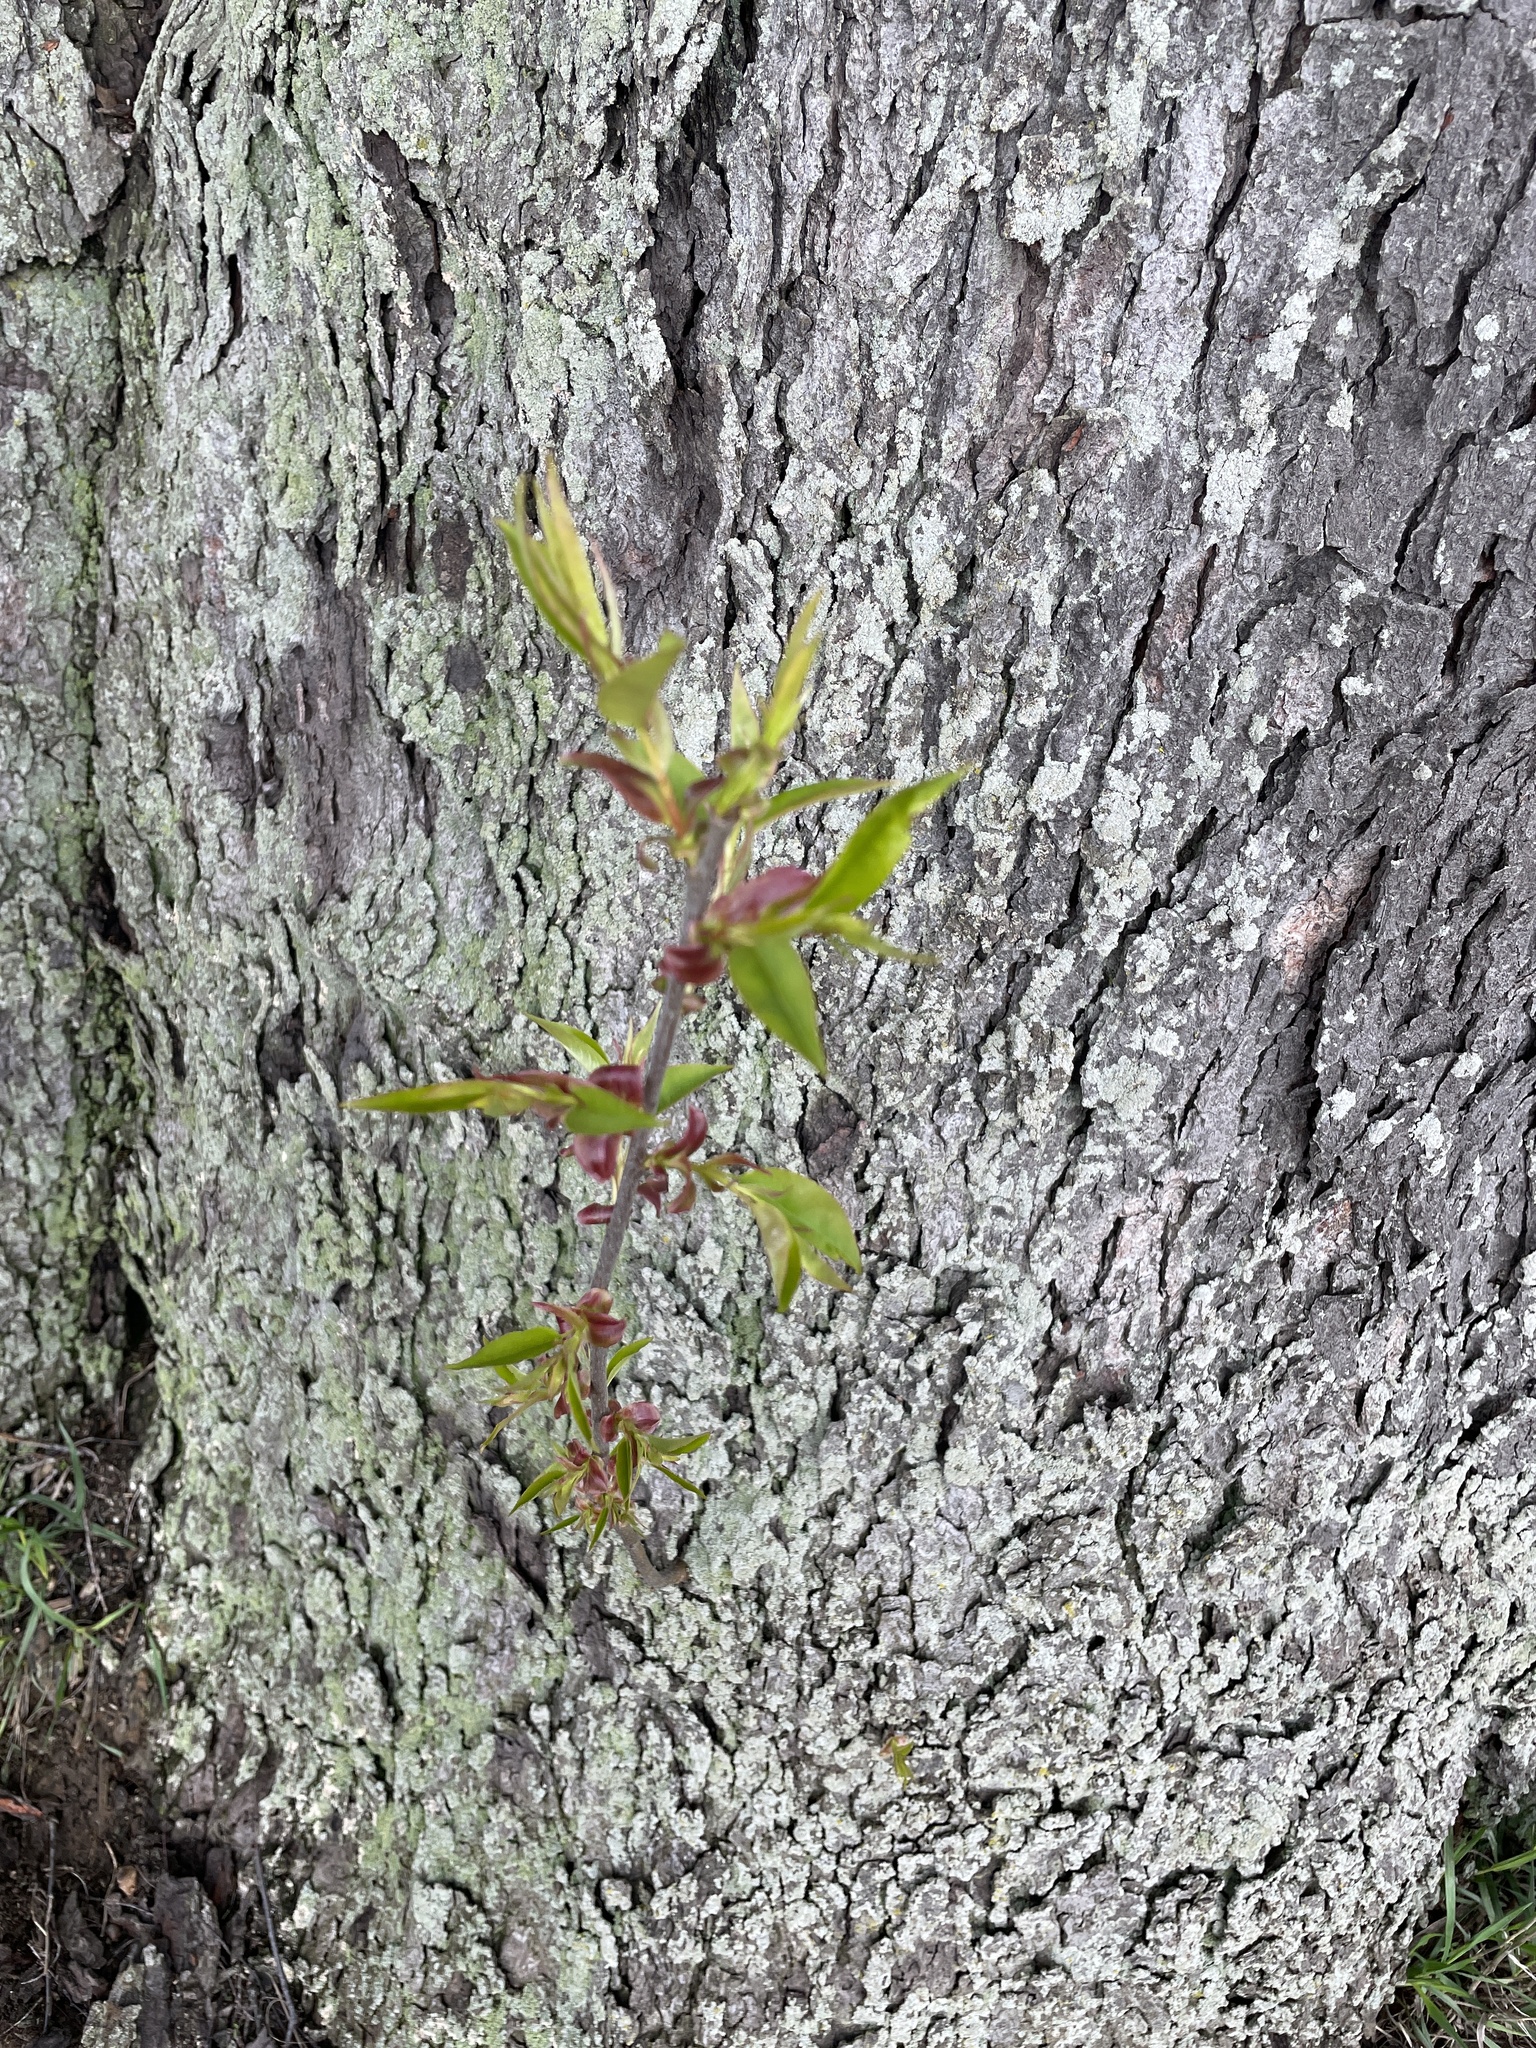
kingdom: Plantae
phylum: Tracheophyta
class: Magnoliopsida
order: Rosales
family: Rosaceae
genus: Prunus
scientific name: Prunus serotina
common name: Black cherry
